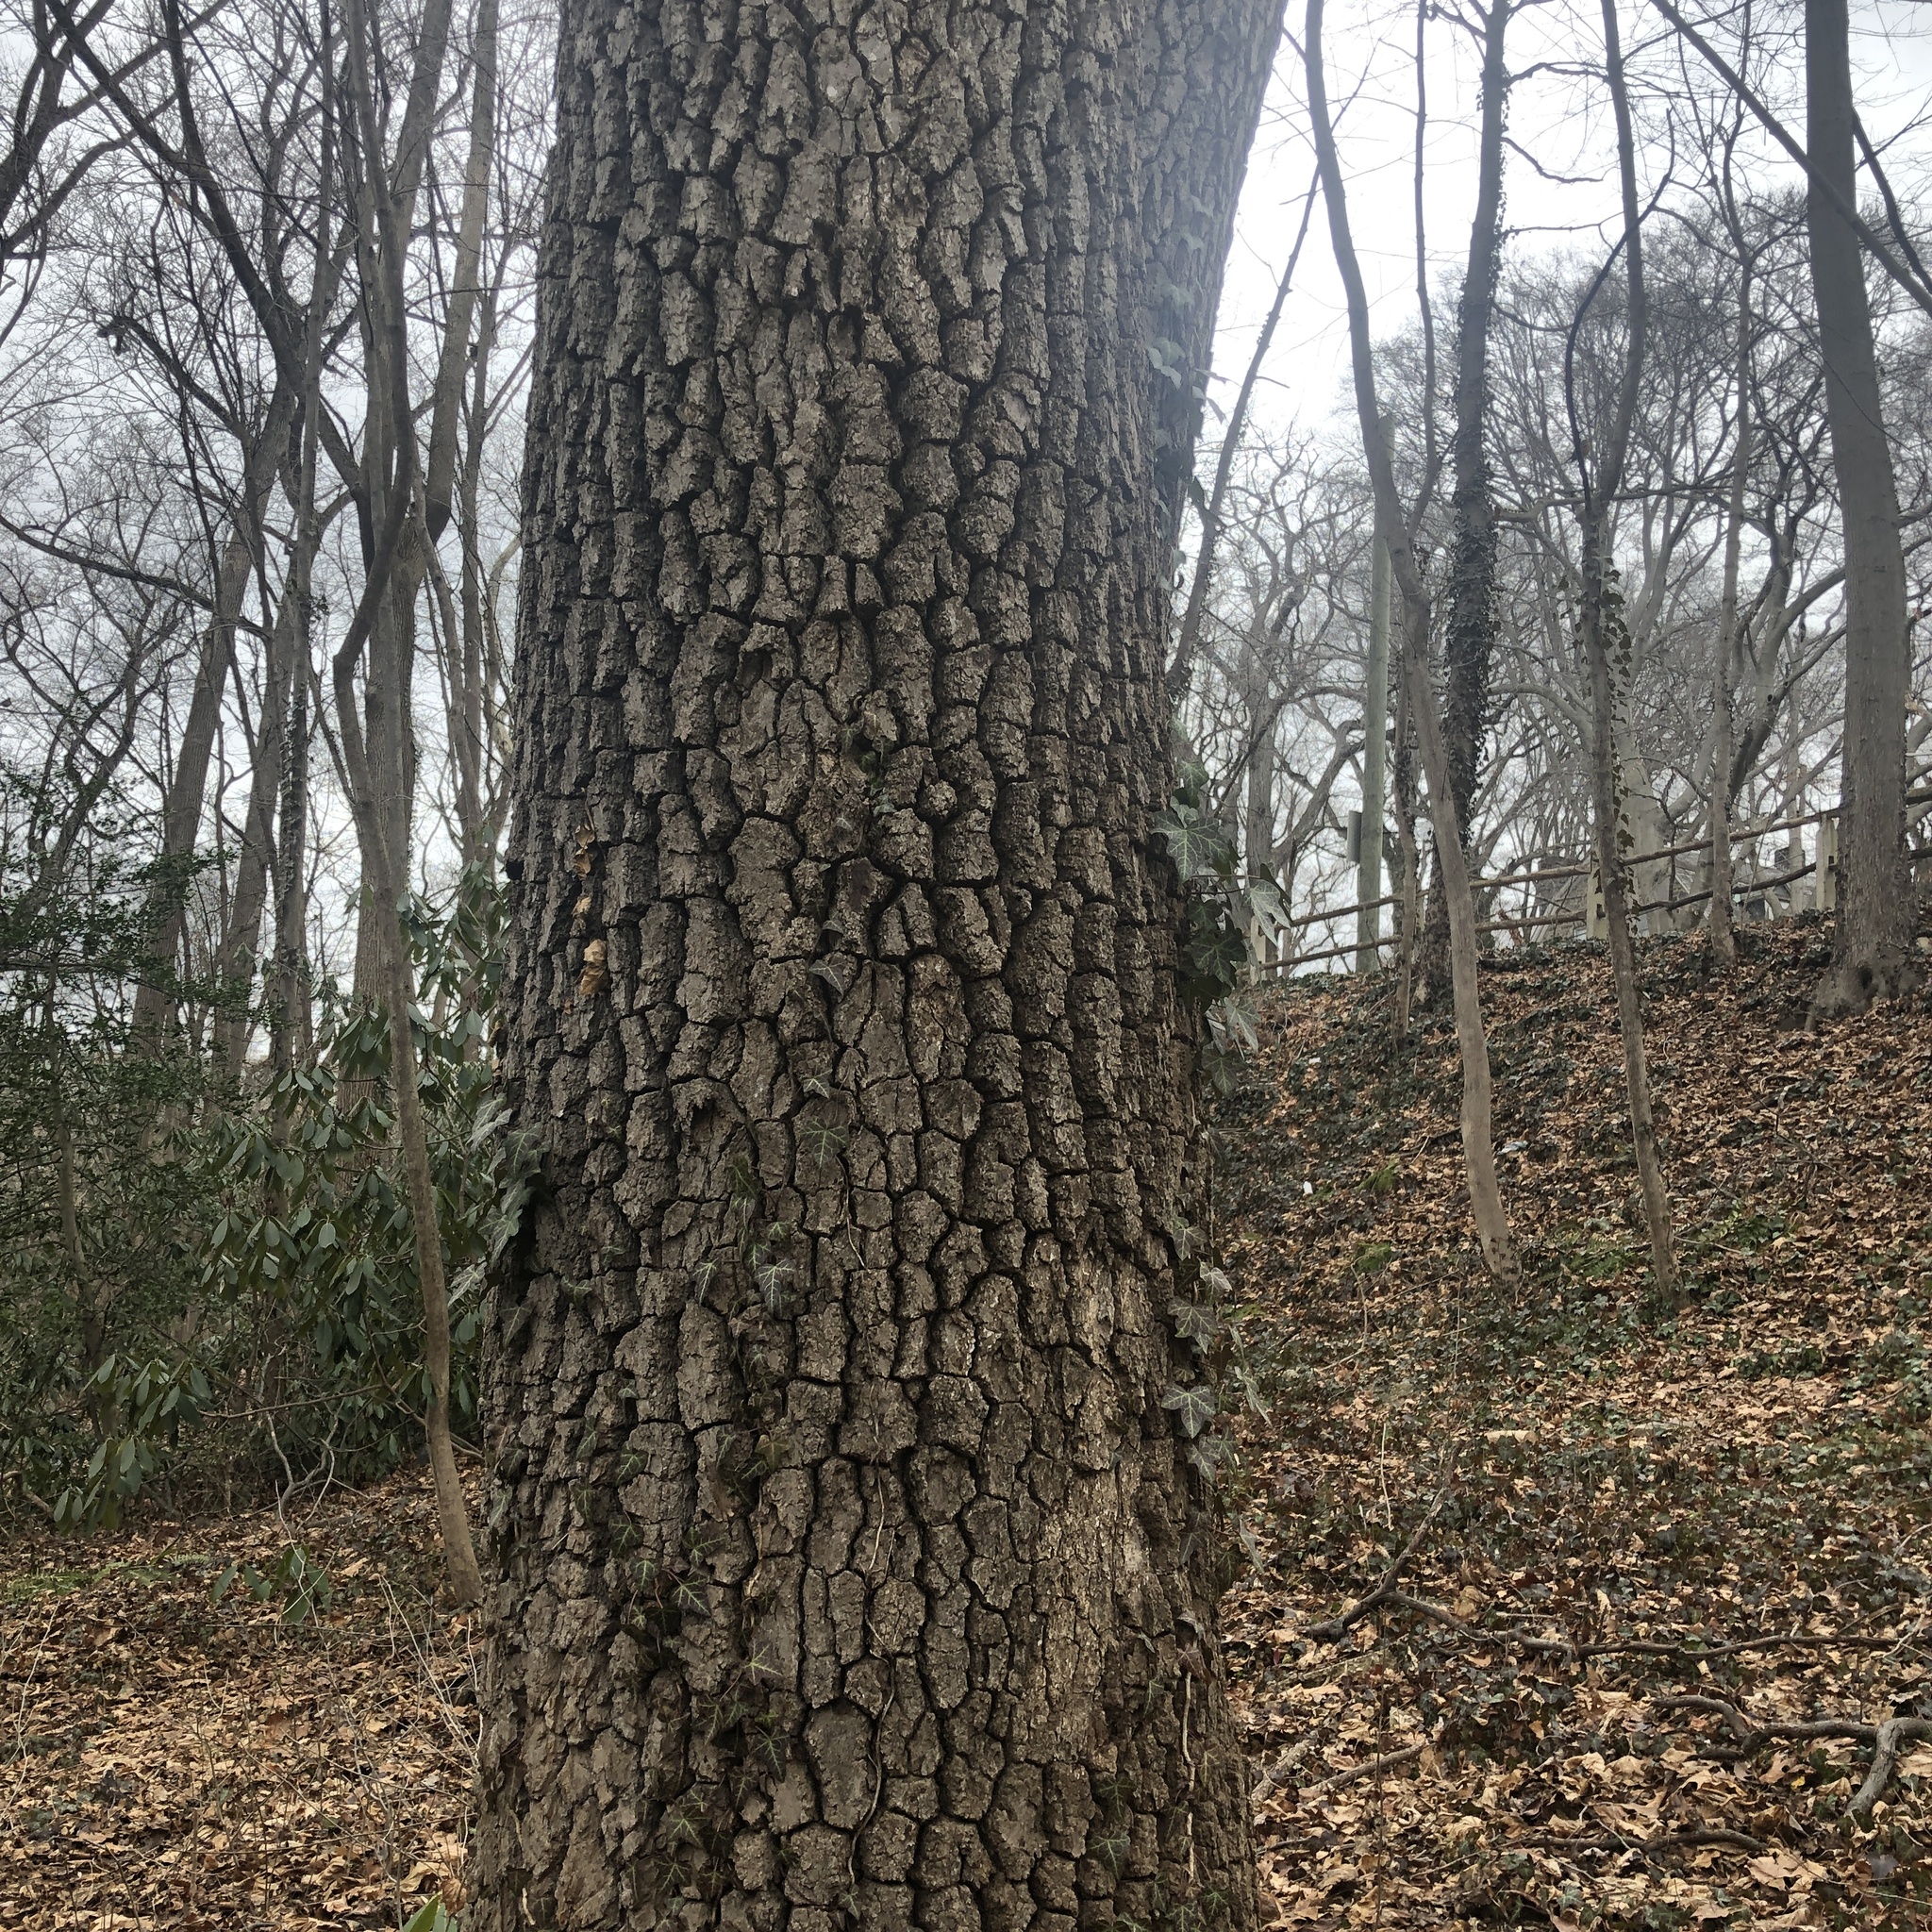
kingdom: Plantae
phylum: Tracheophyta
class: Magnoliopsida
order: Cornales
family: Nyssaceae
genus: Nyssa
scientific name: Nyssa sylvatica
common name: Black tupelo
